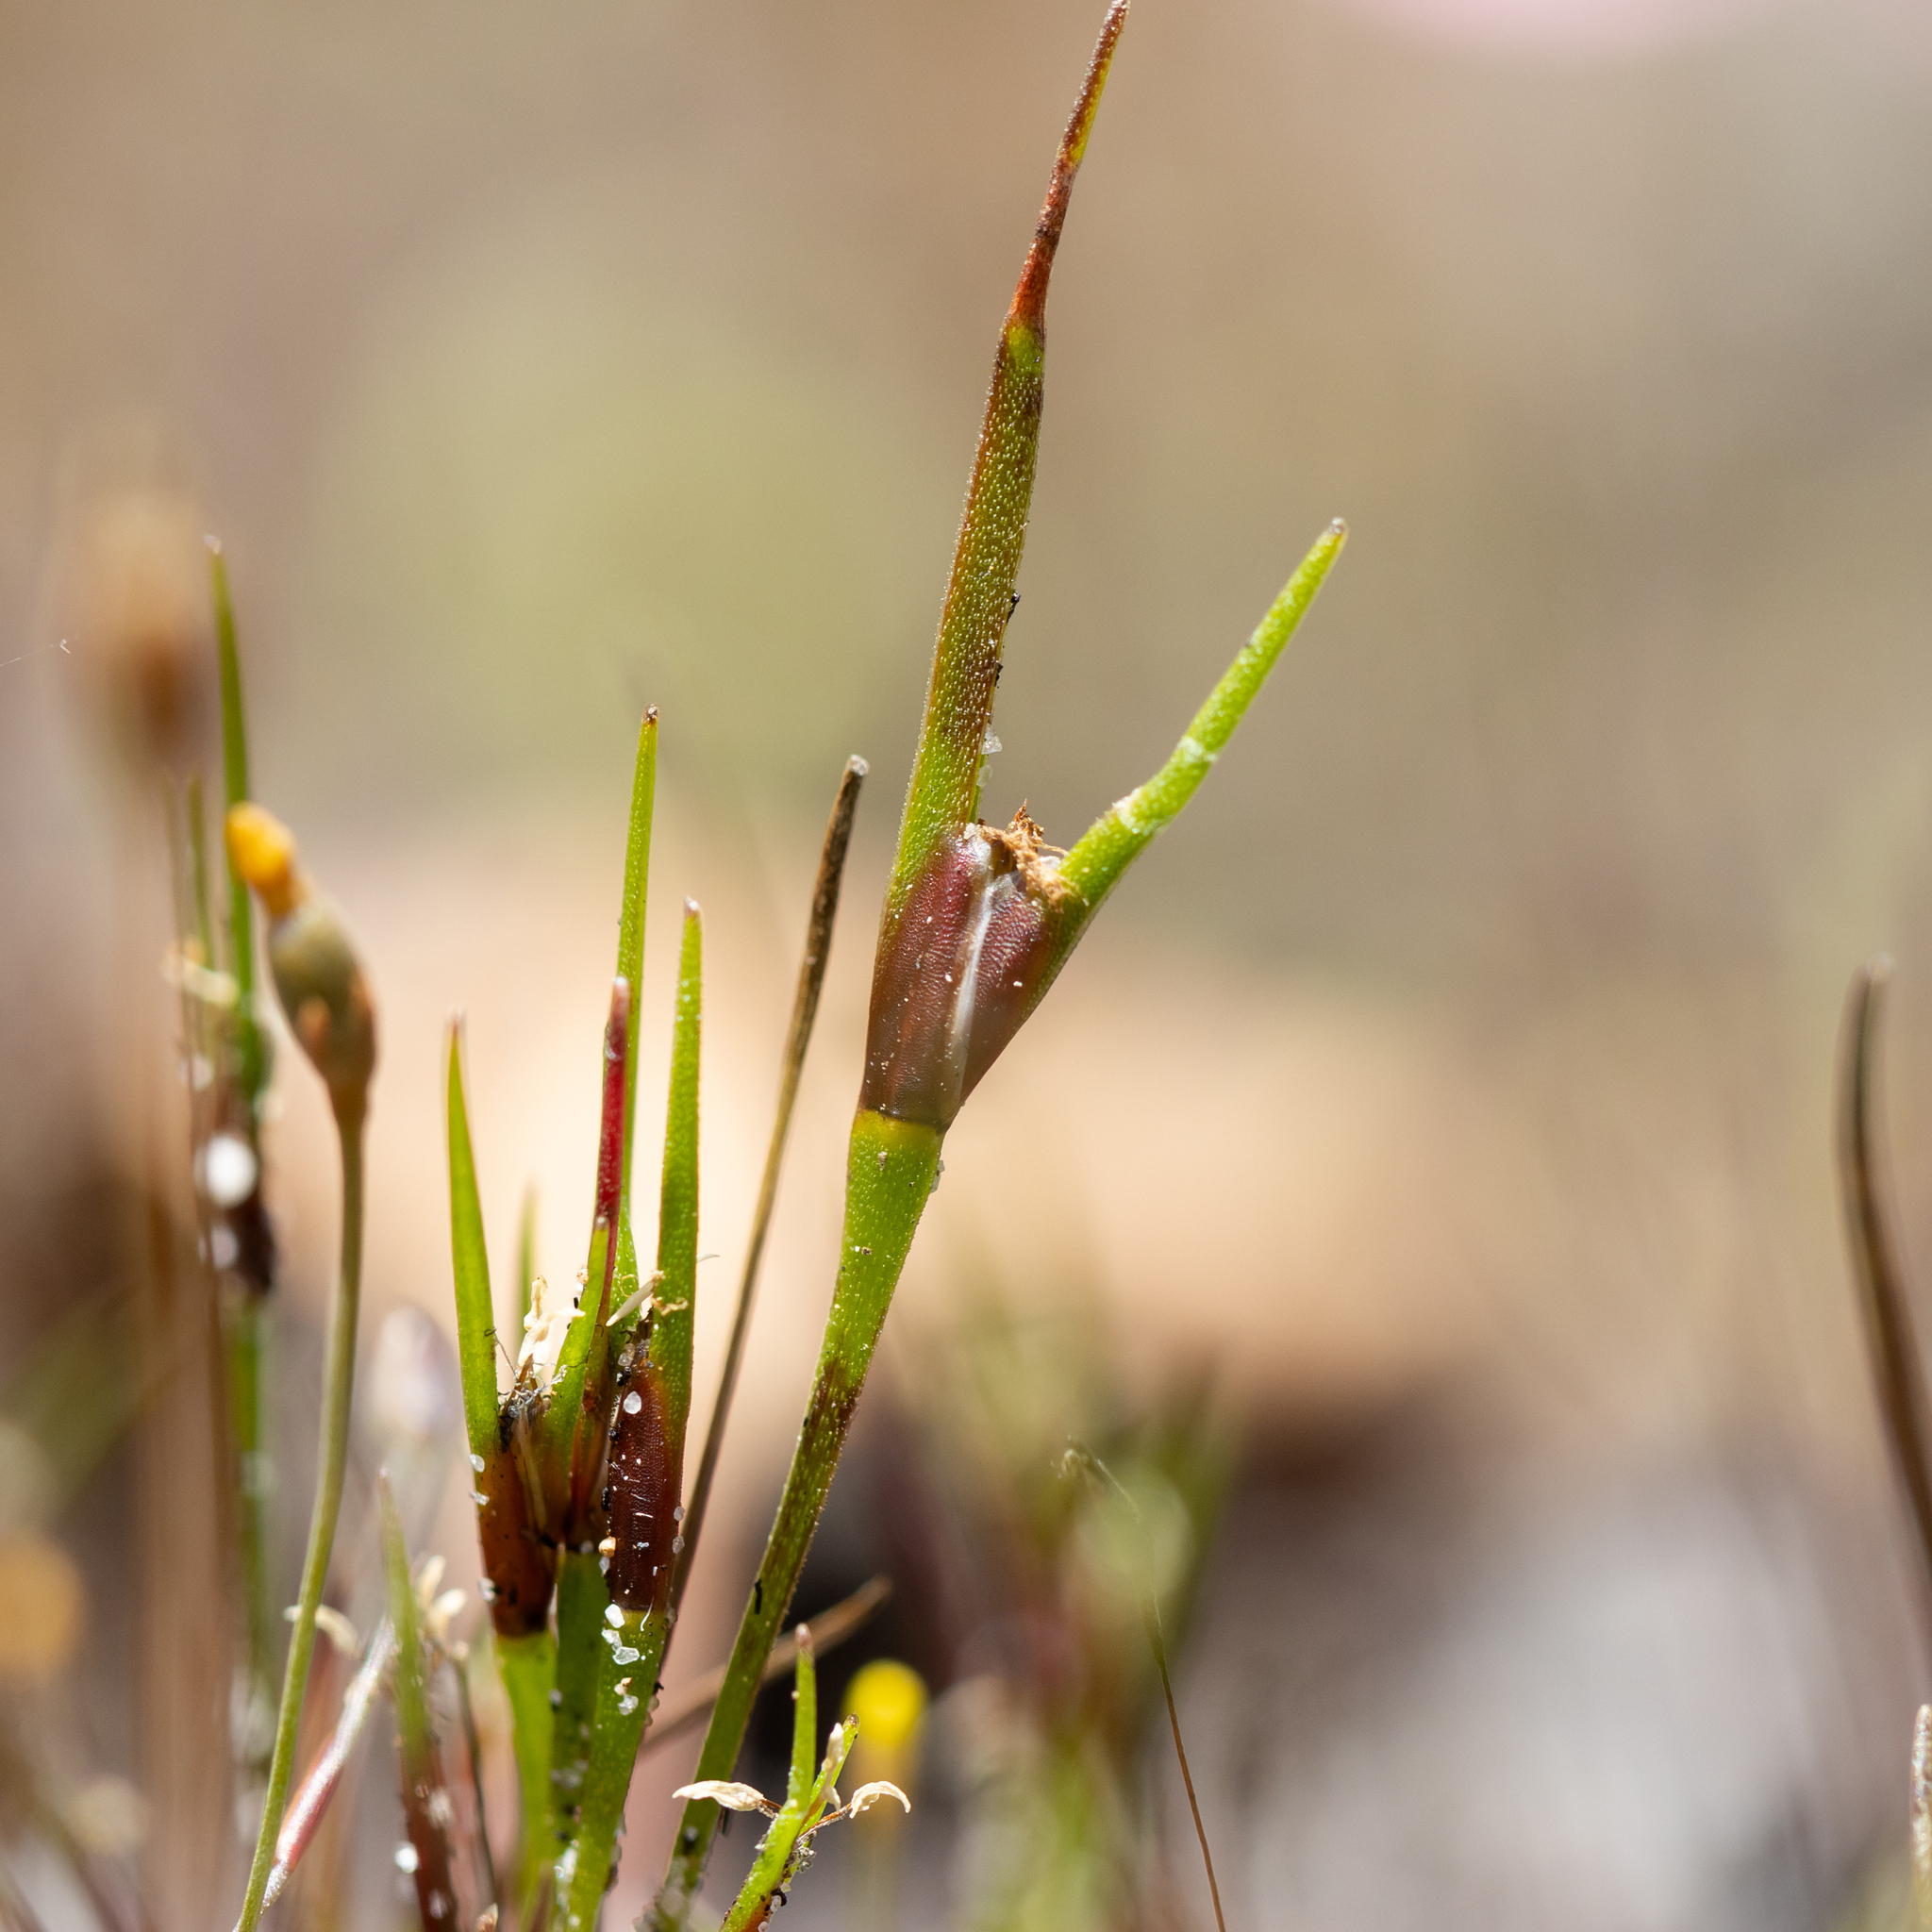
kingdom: Plantae
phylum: Tracheophyta
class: Liliopsida
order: Poales
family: Restionaceae
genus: Centrolepis
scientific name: Centrolepis aristata
